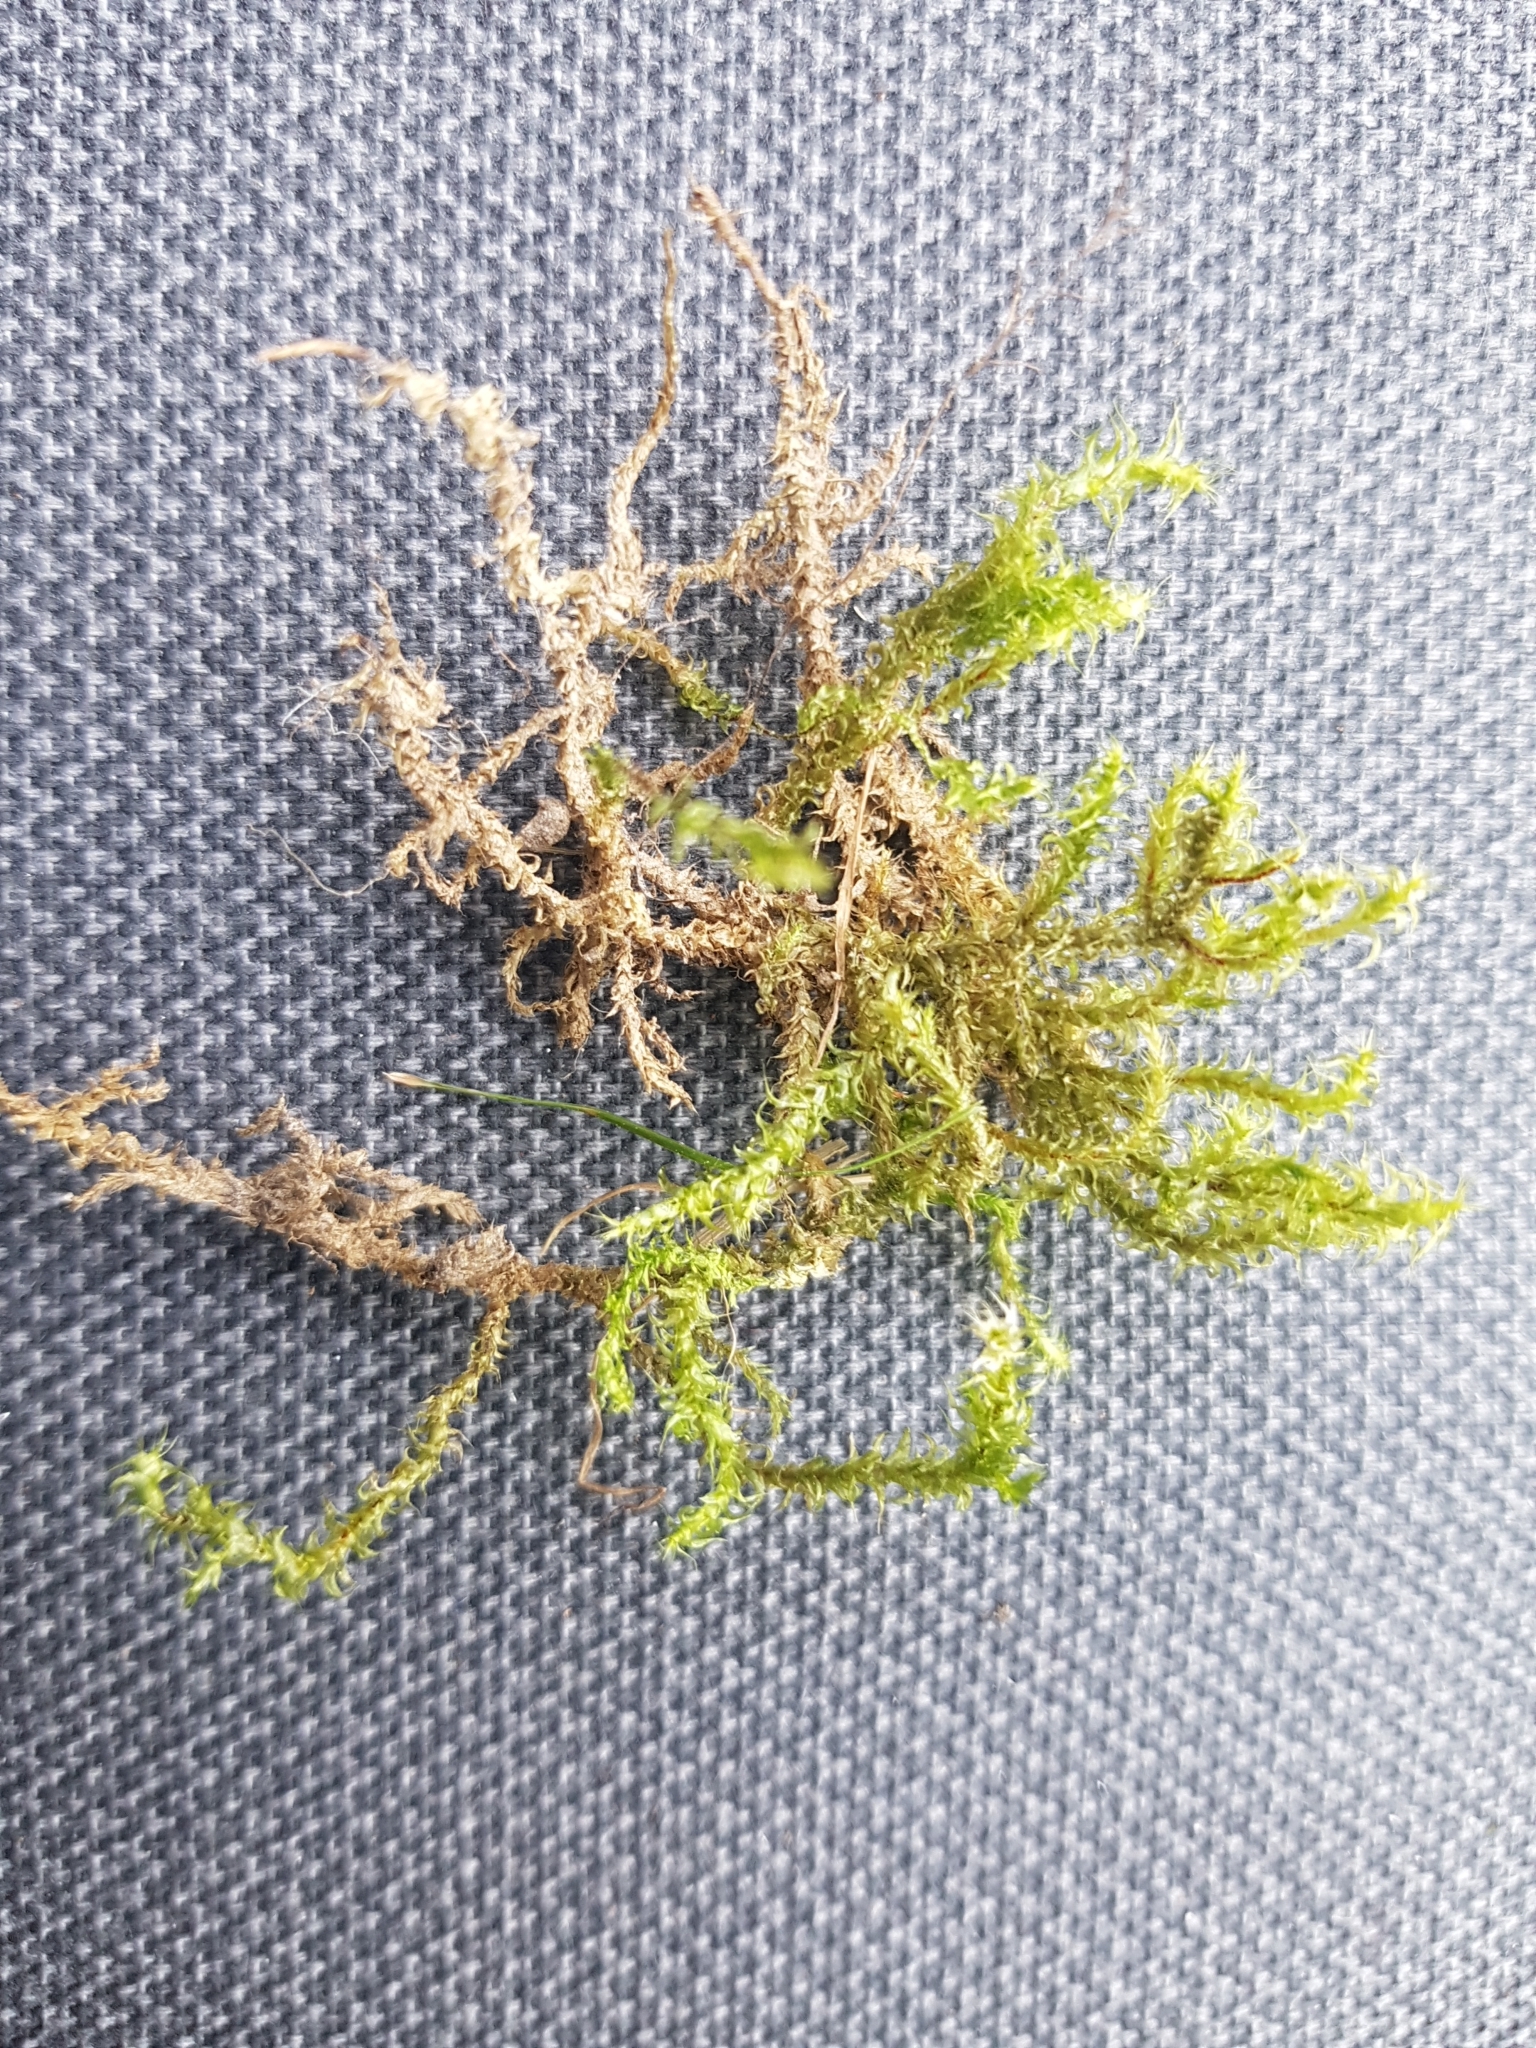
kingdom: Plantae
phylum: Bryophyta
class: Bryopsida
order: Hypnales
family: Hylocomiaceae
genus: Rhytidiadelphus
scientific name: Rhytidiadelphus squarrosus
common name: Springy turf-moss
